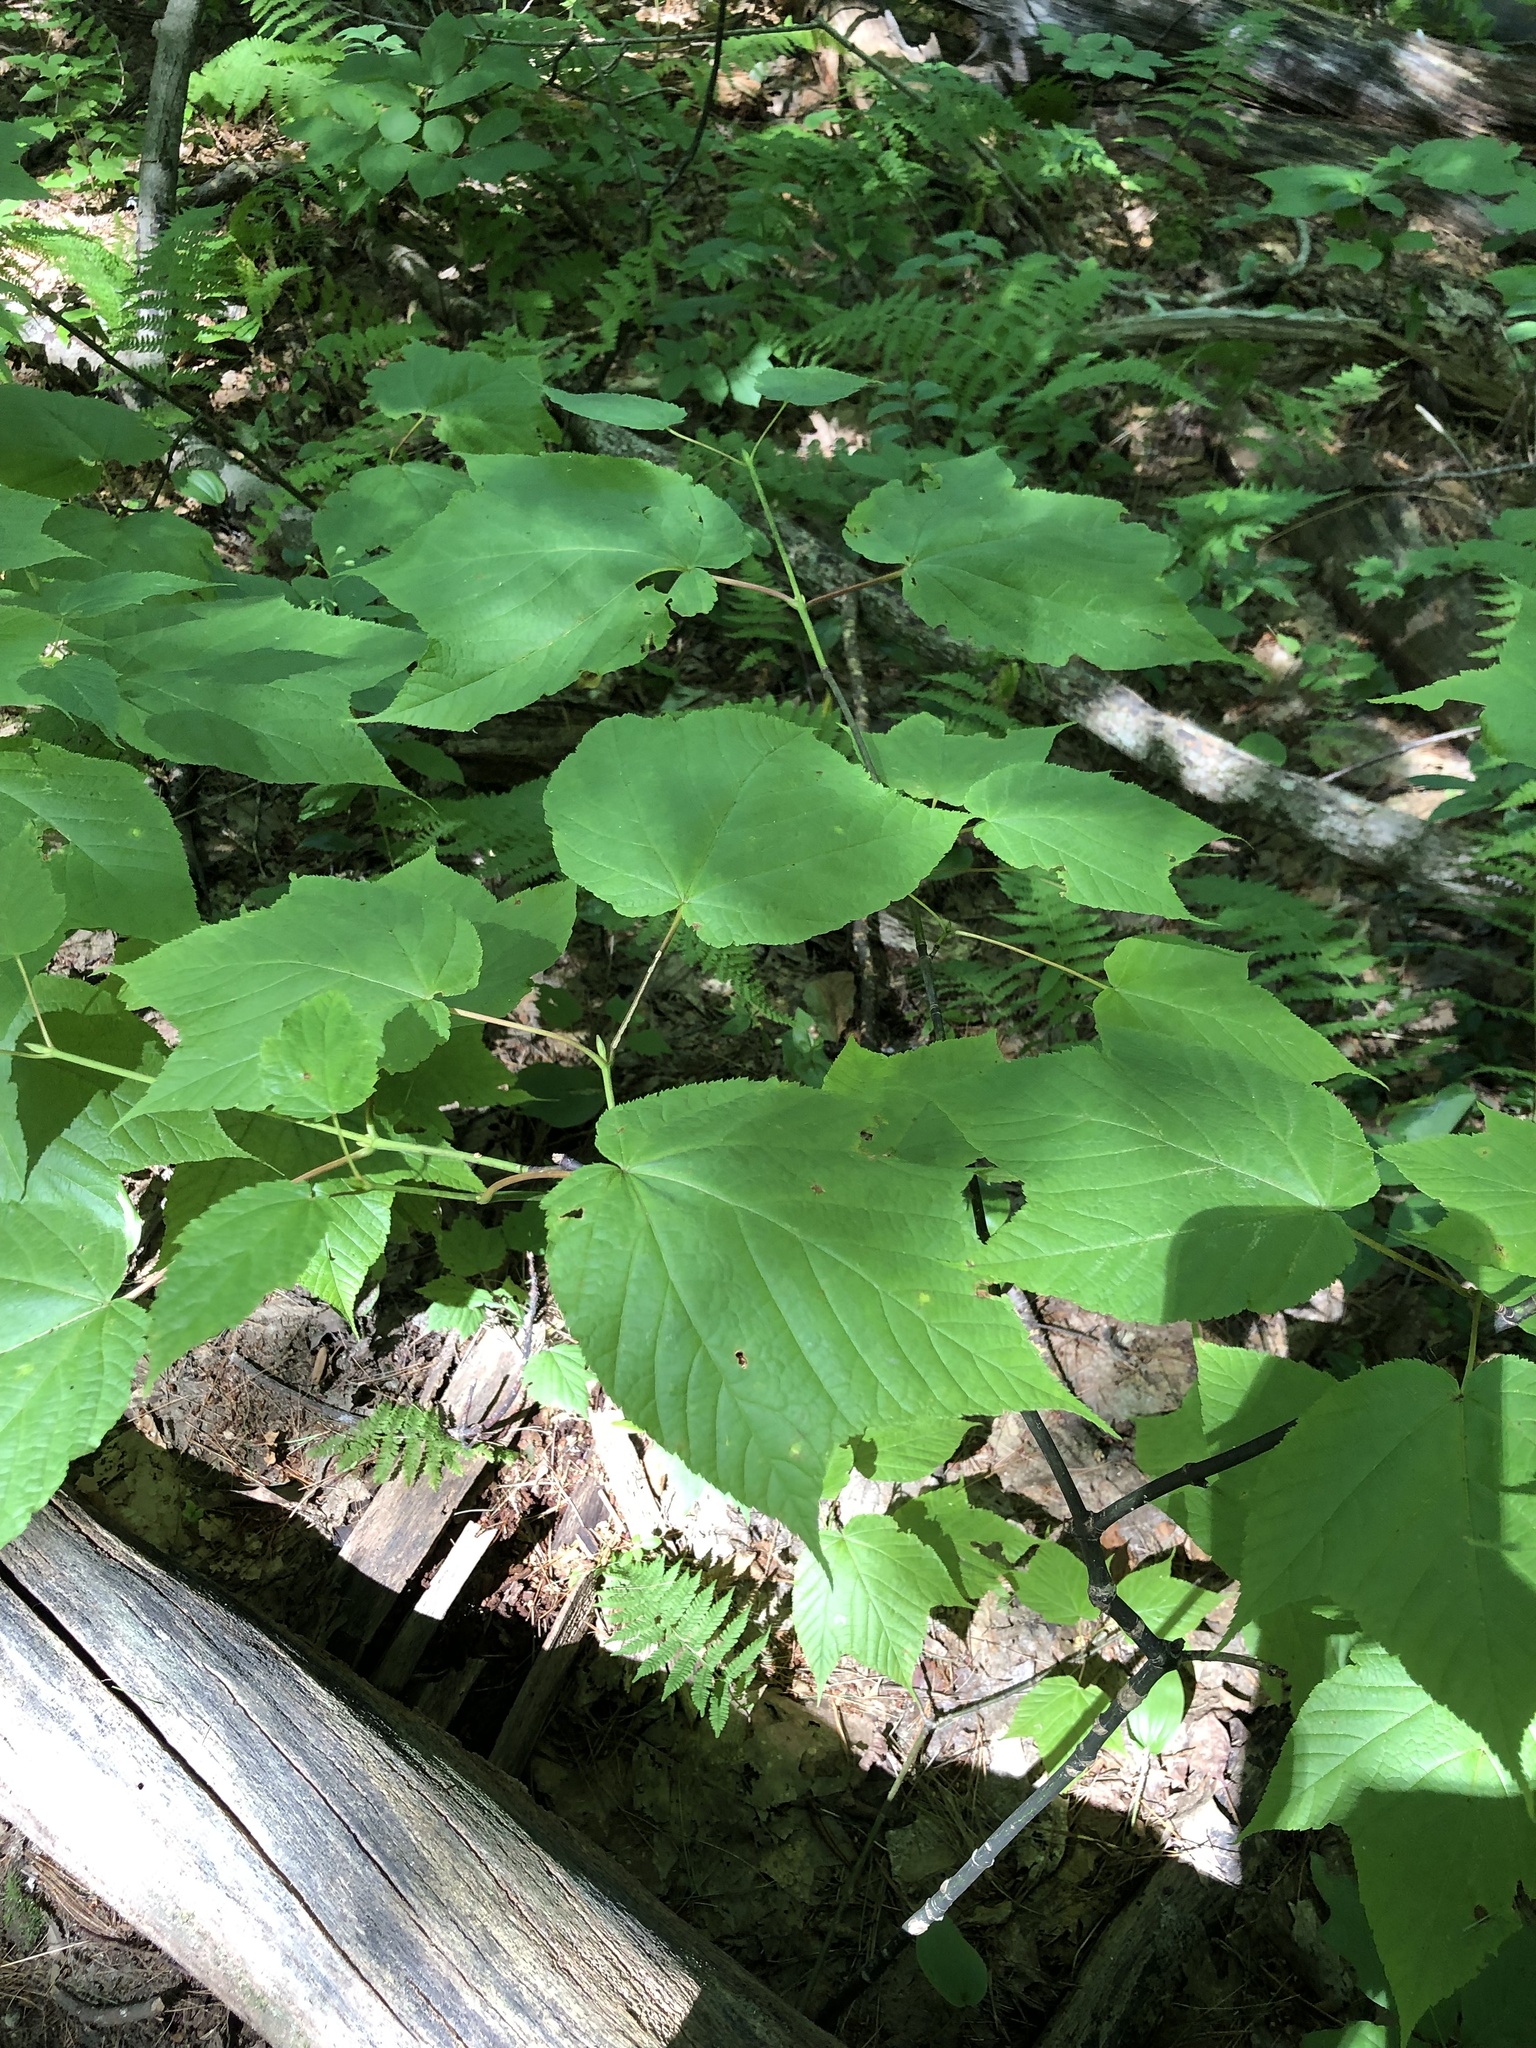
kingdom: Plantae
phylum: Tracheophyta
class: Magnoliopsida
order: Sapindales
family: Sapindaceae
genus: Acer
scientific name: Acer pensylvanicum
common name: Moosewood
